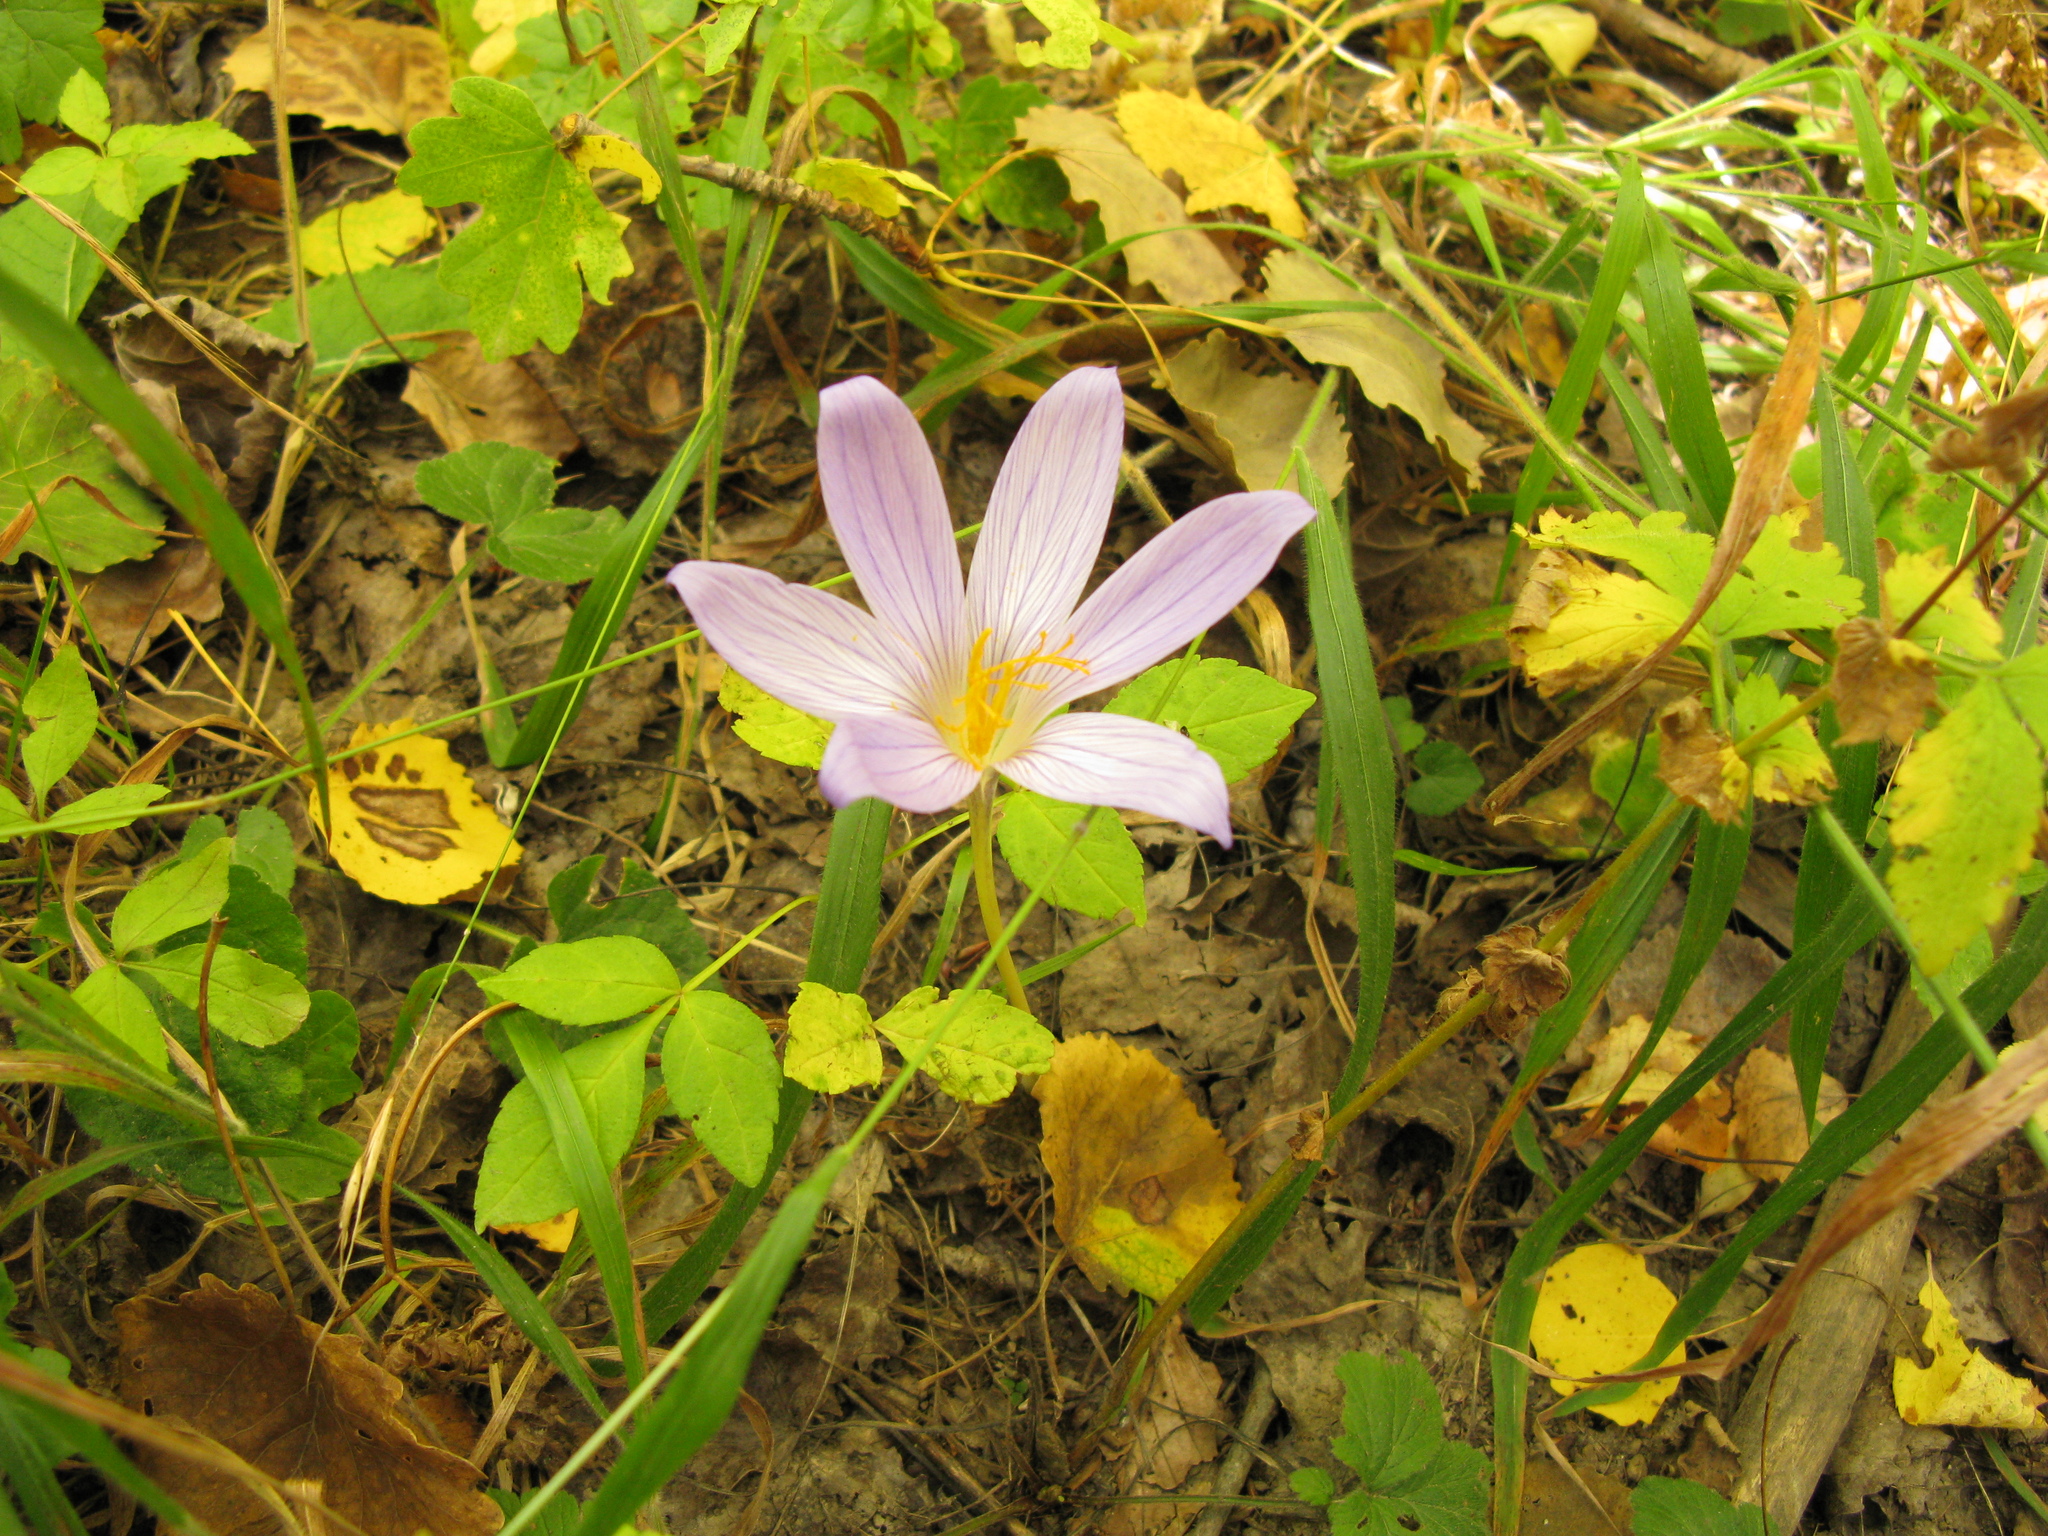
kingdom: Plantae
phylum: Tracheophyta
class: Liliopsida
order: Asparagales
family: Iridaceae
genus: Crocus
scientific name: Crocus speciosus
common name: Bieberstein's crocus
